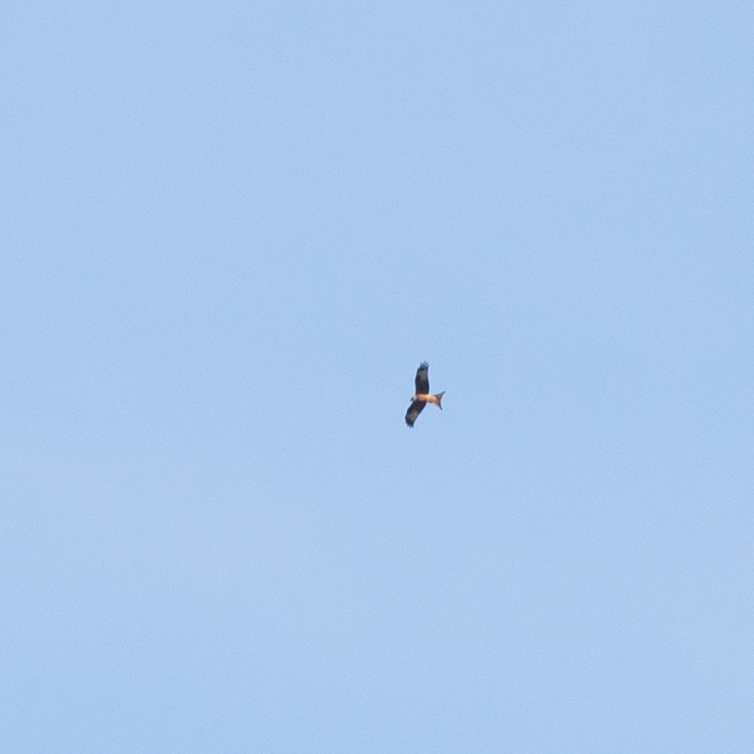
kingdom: Animalia
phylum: Chordata
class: Aves
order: Accipitriformes
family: Accipitridae
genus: Milvus
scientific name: Milvus milvus
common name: Red kite
